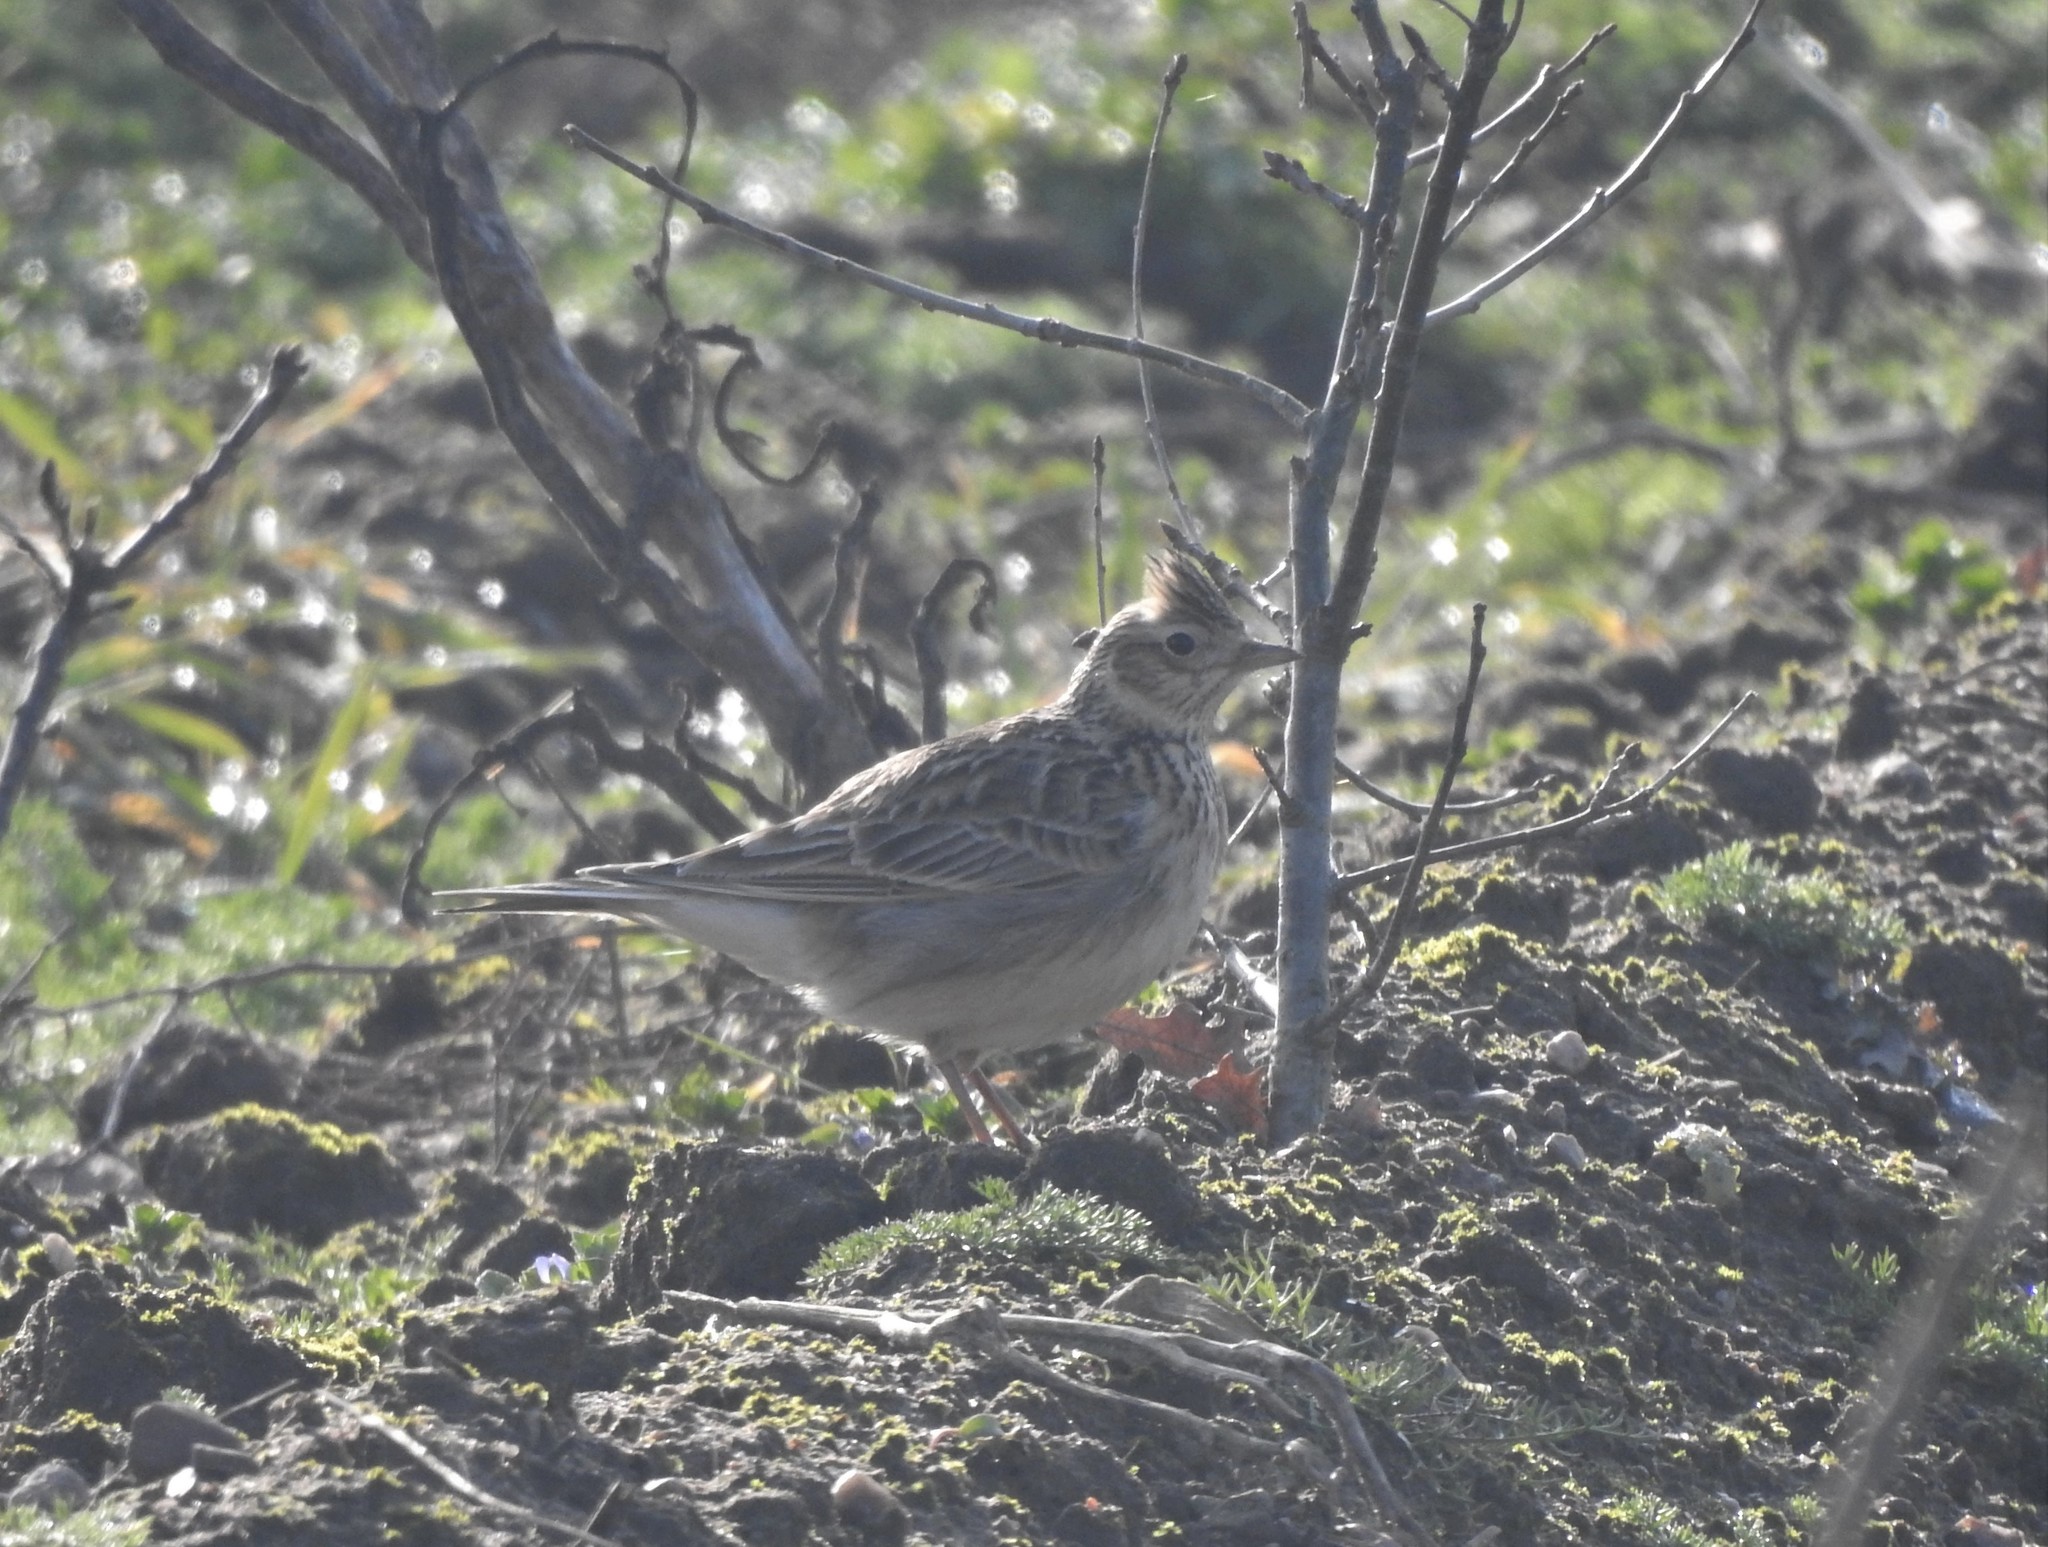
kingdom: Animalia
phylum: Chordata
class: Aves
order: Passeriformes
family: Alaudidae
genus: Alauda
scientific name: Alauda arvensis
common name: Eurasian skylark
